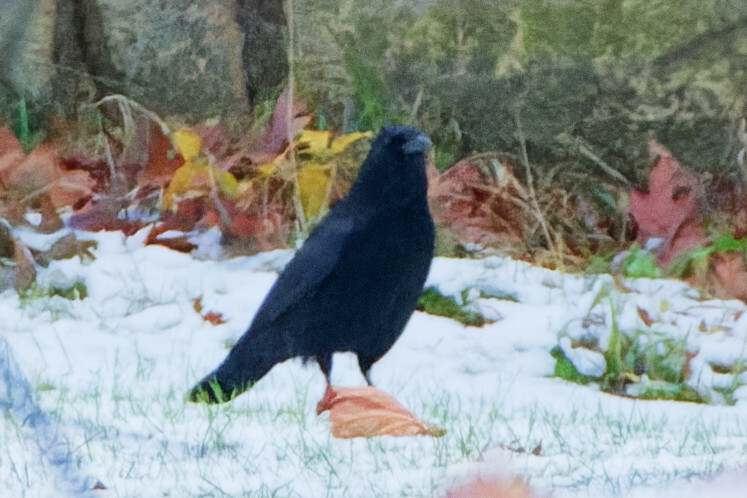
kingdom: Animalia
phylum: Chordata
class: Aves
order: Passeriformes
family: Corvidae
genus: Corvus
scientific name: Corvus corone
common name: Carrion crow
